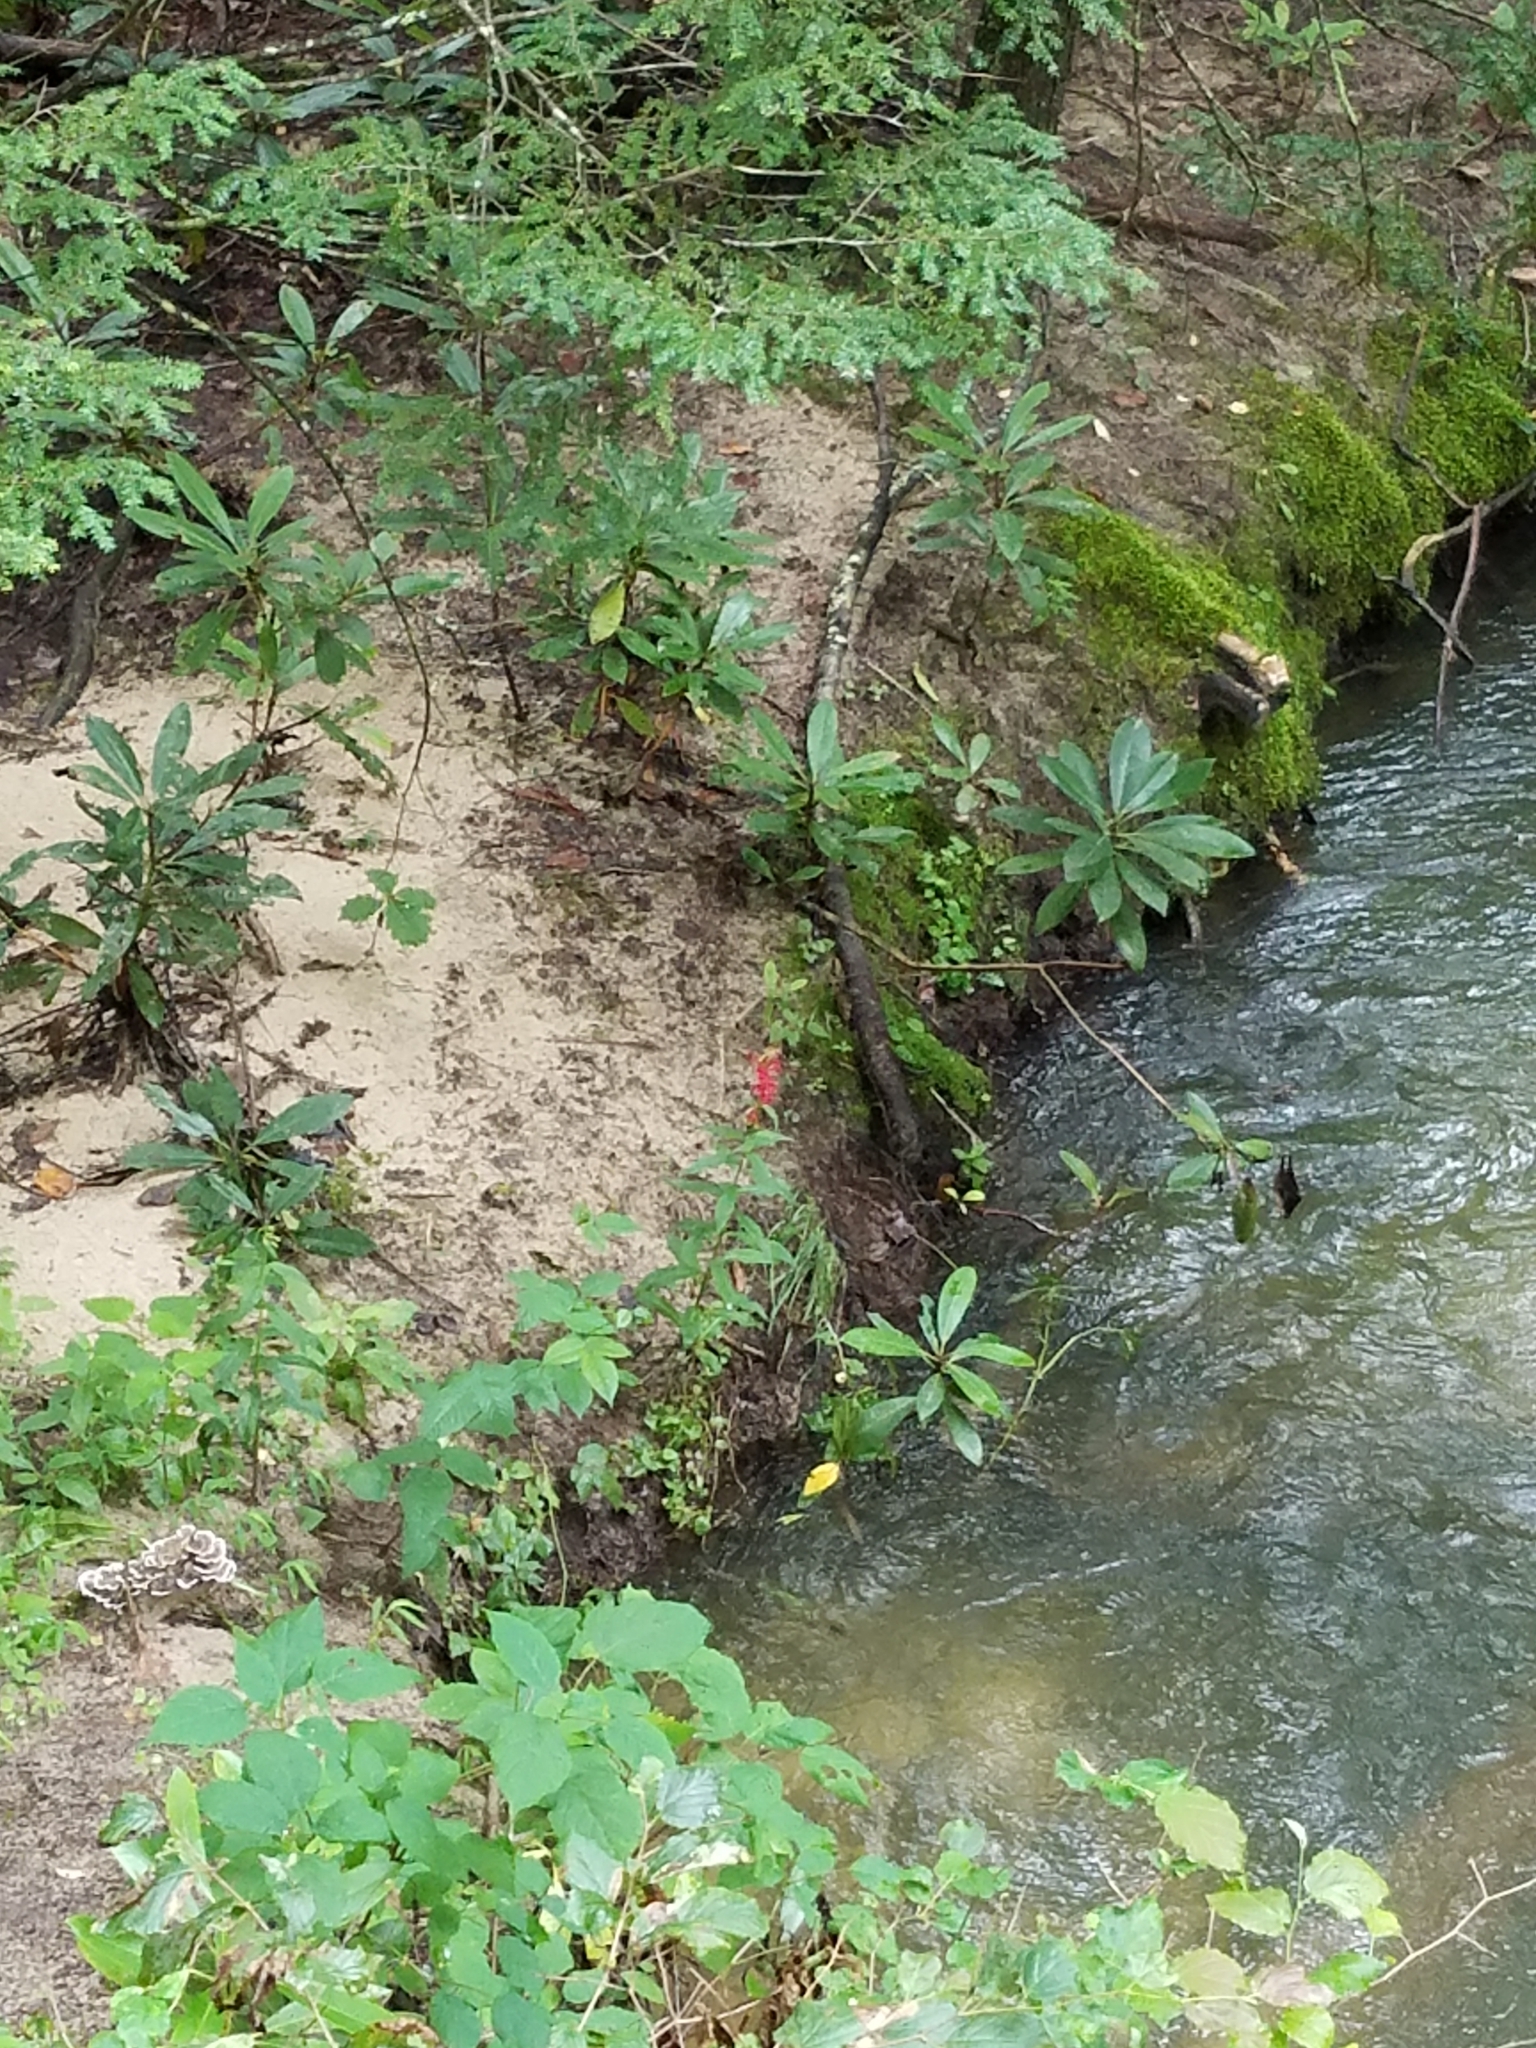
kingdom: Plantae
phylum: Tracheophyta
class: Magnoliopsida
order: Asterales
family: Campanulaceae
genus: Lobelia
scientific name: Lobelia cardinalis
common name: Cardinal flower
